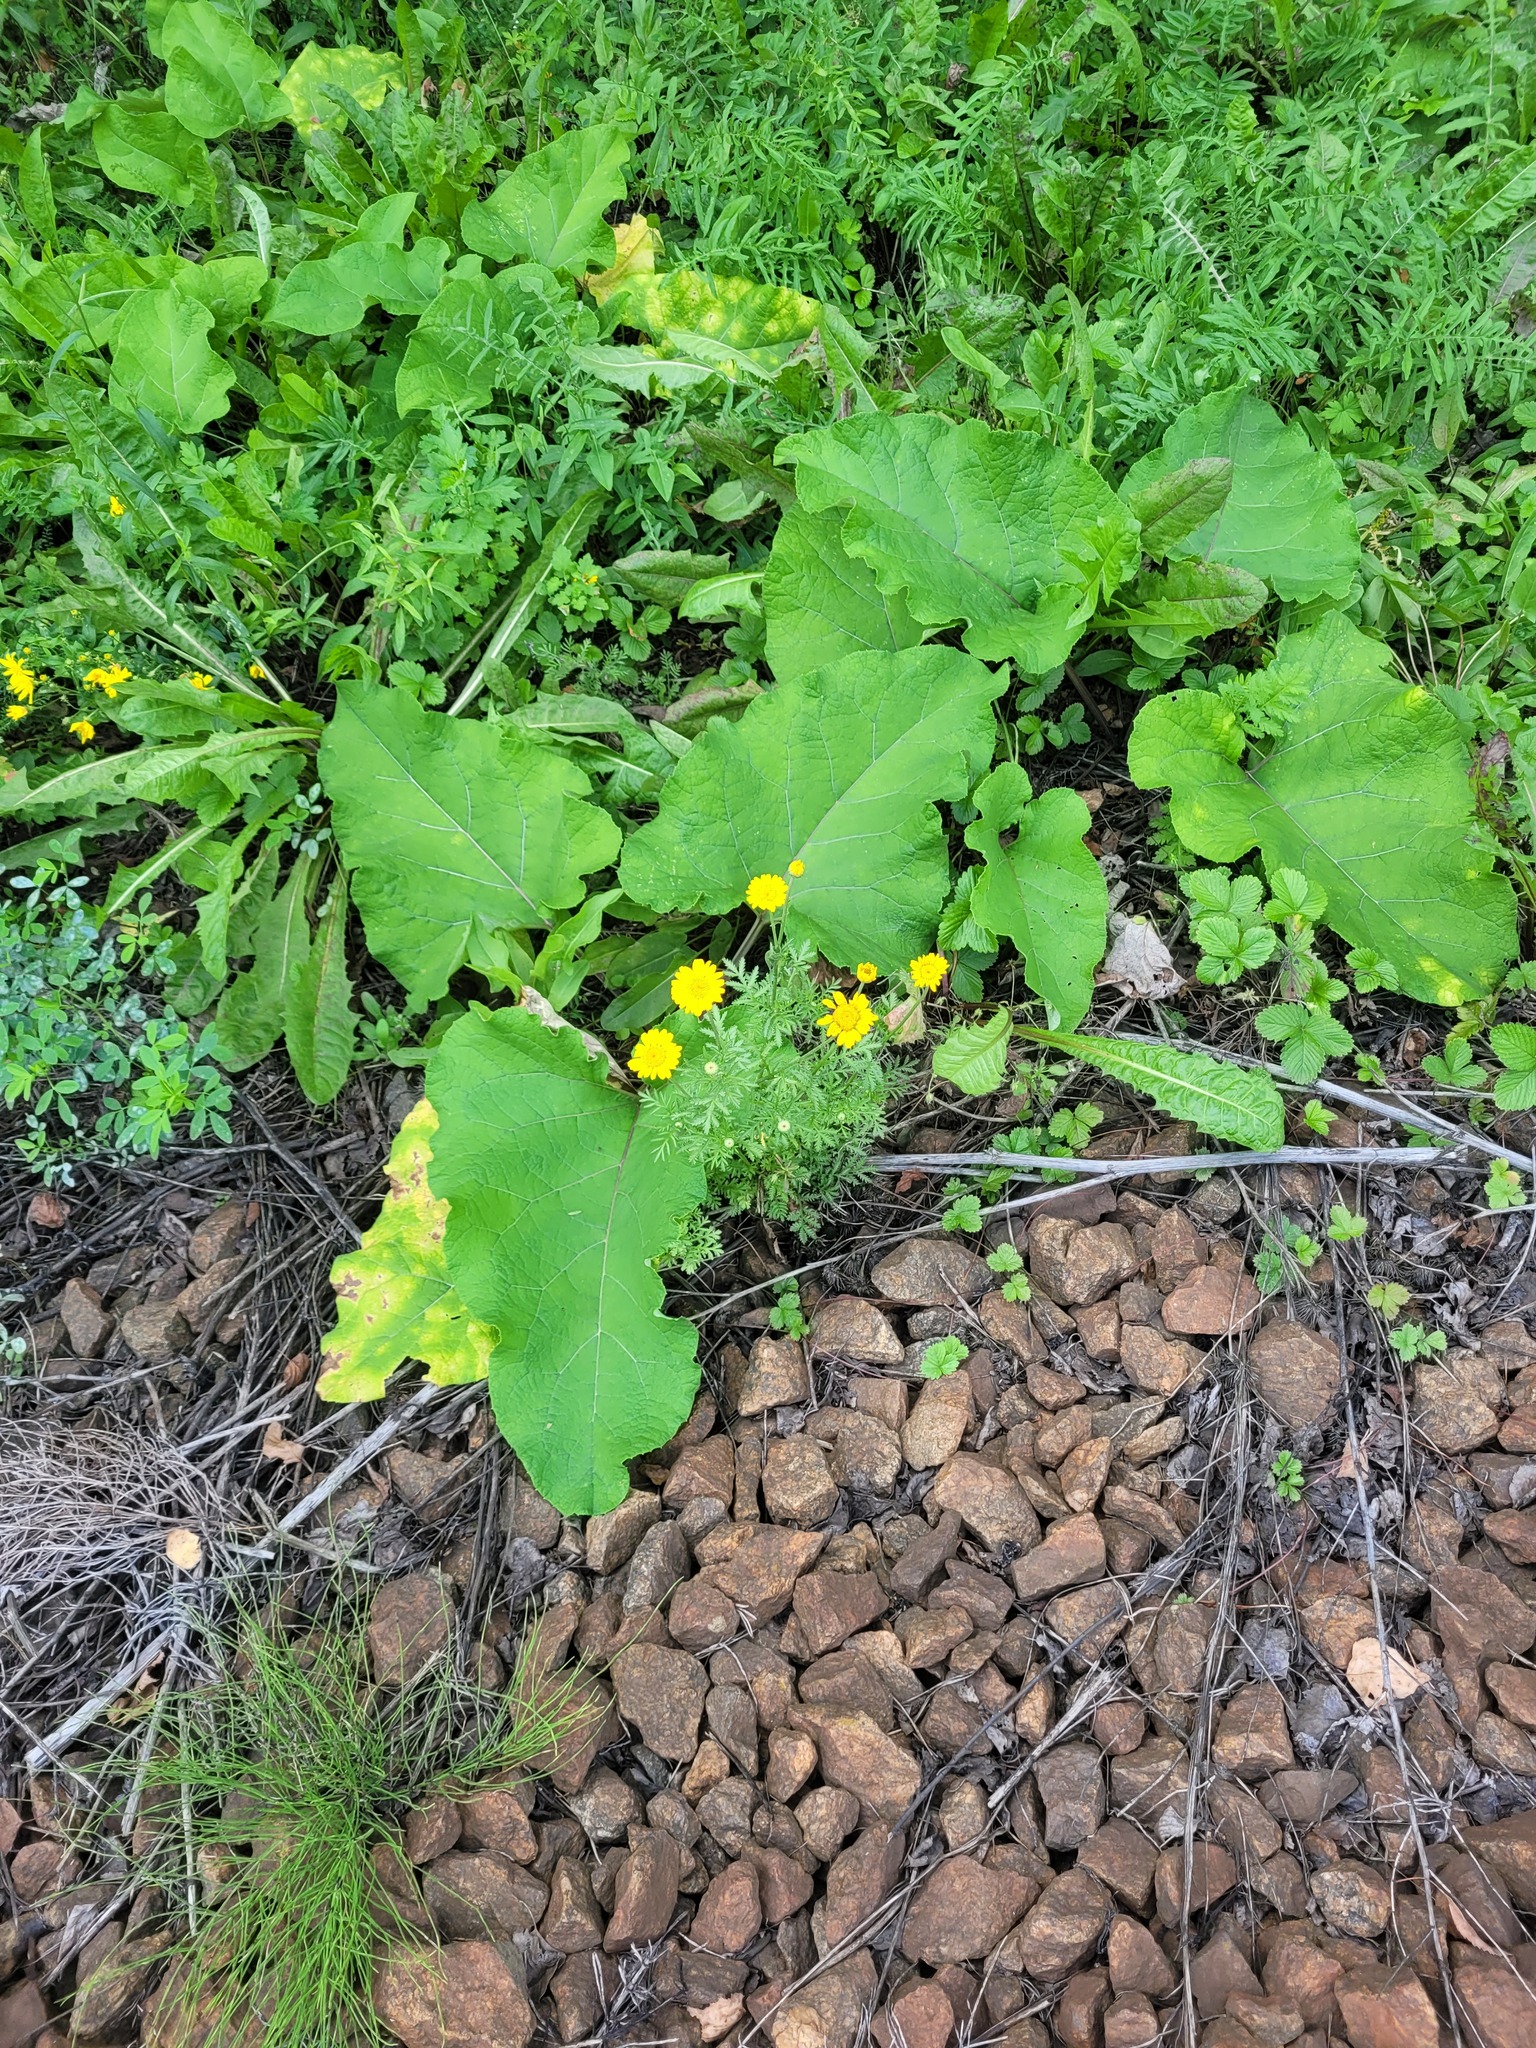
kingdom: Plantae
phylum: Tracheophyta
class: Magnoliopsida
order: Asterales
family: Asteraceae
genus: Cota
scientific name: Cota tinctoria
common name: Golden chamomile
